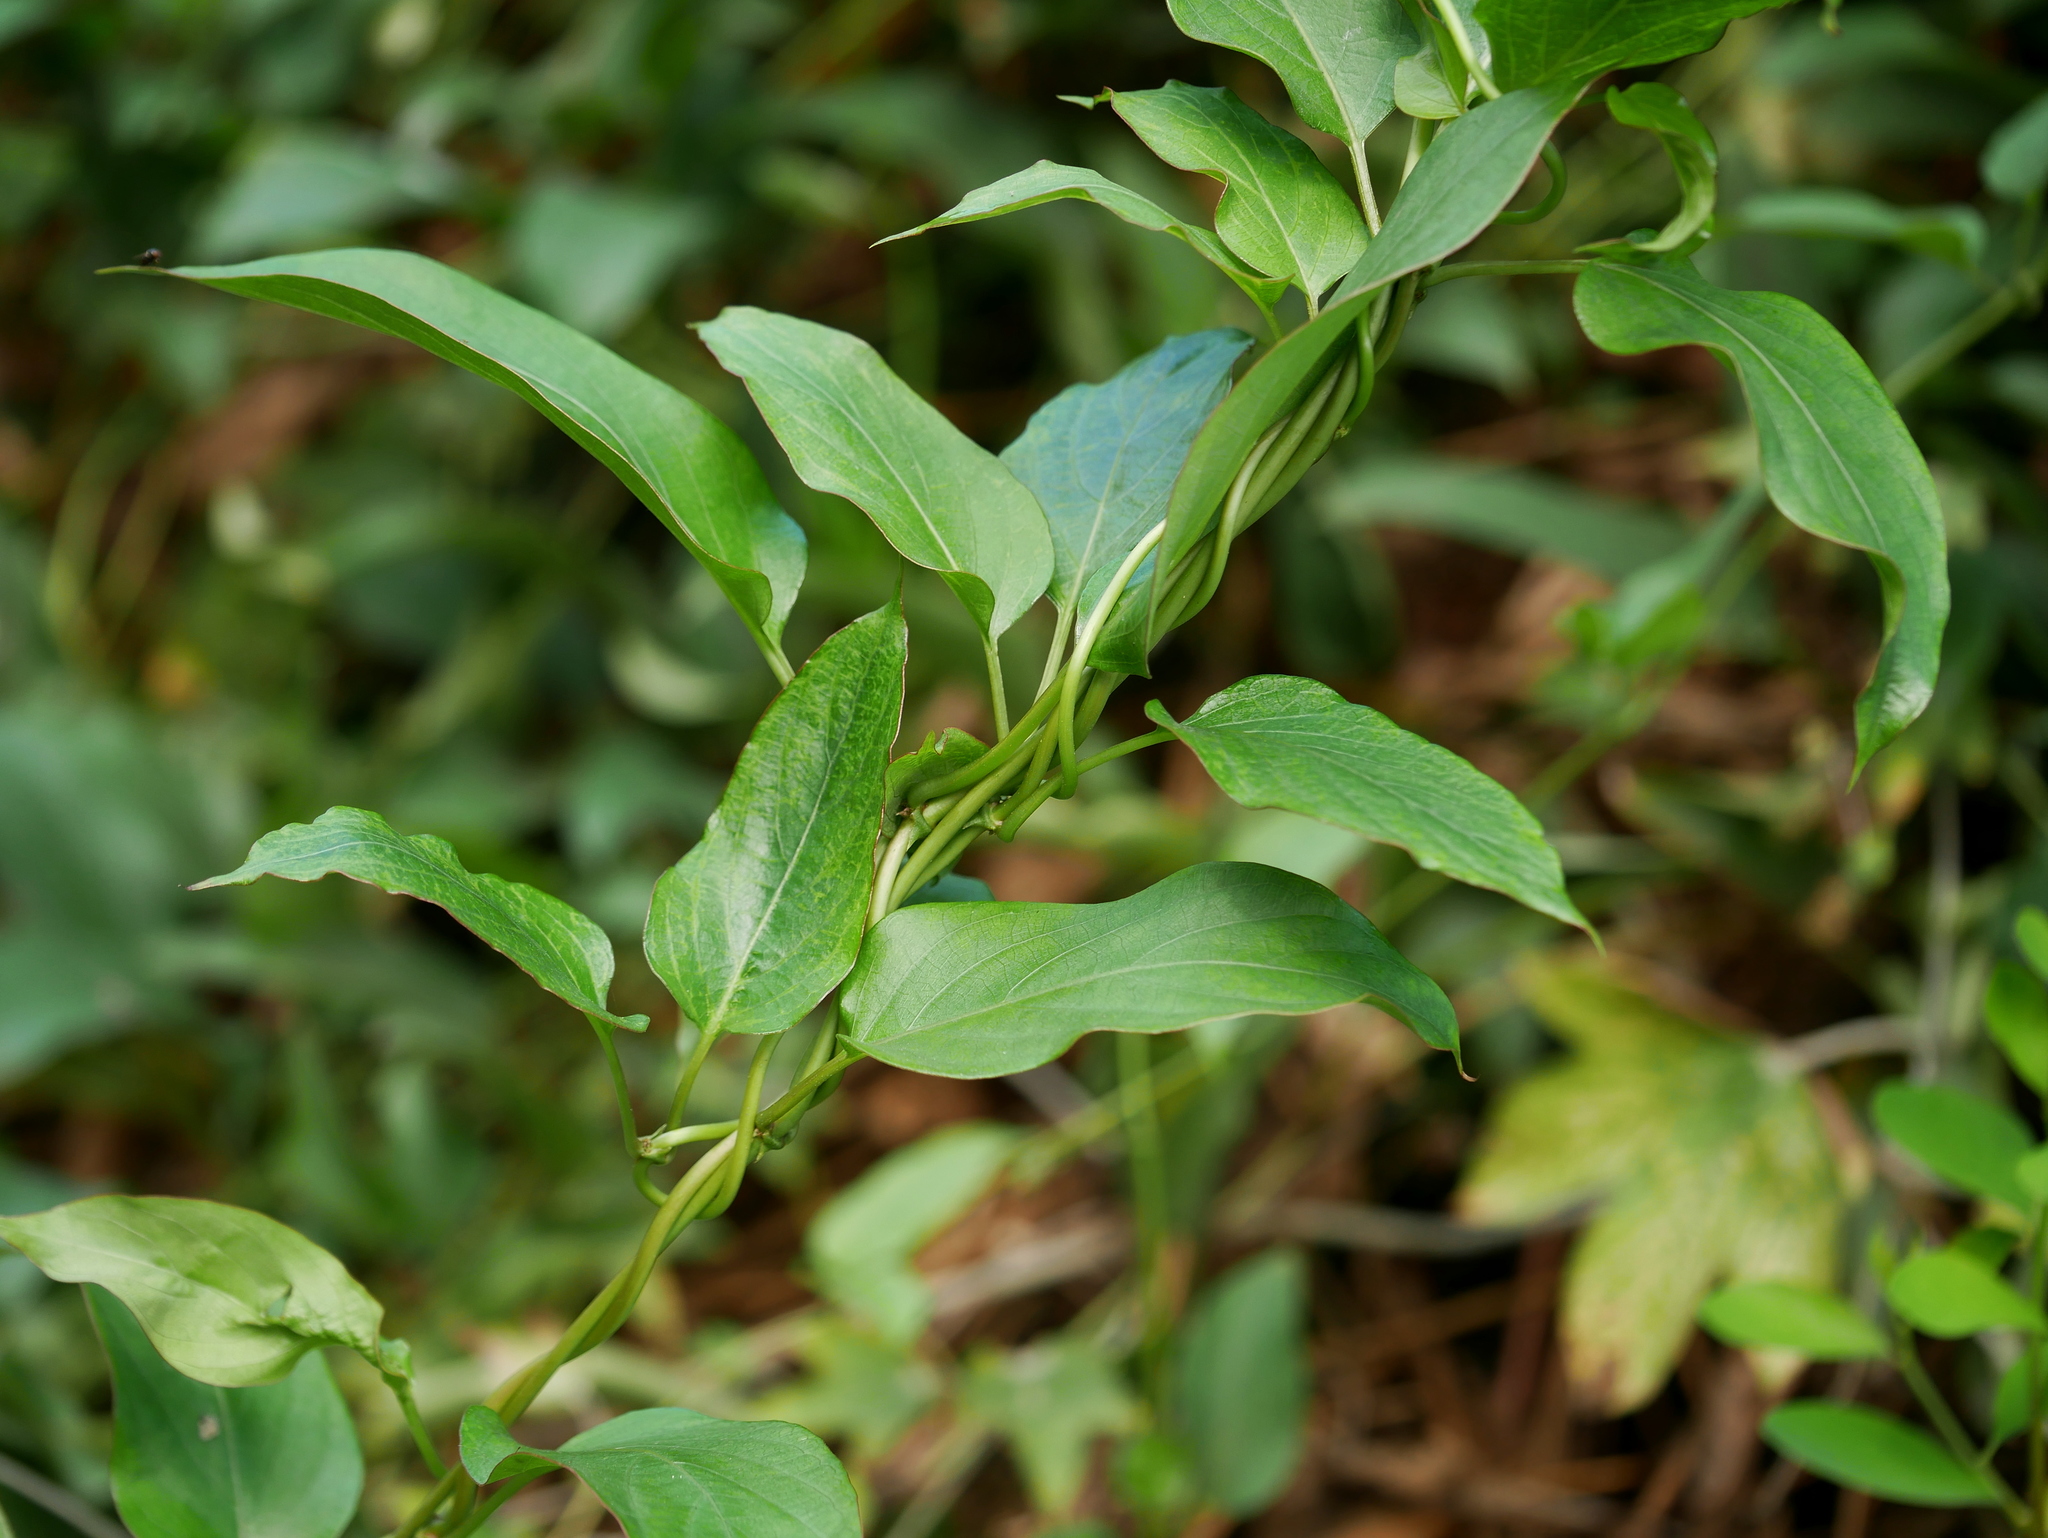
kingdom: Plantae
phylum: Tracheophyta
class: Magnoliopsida
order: Gentianales
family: Rubiaceae
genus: Paederia
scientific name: Paederia foetida
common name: Stinkvine
